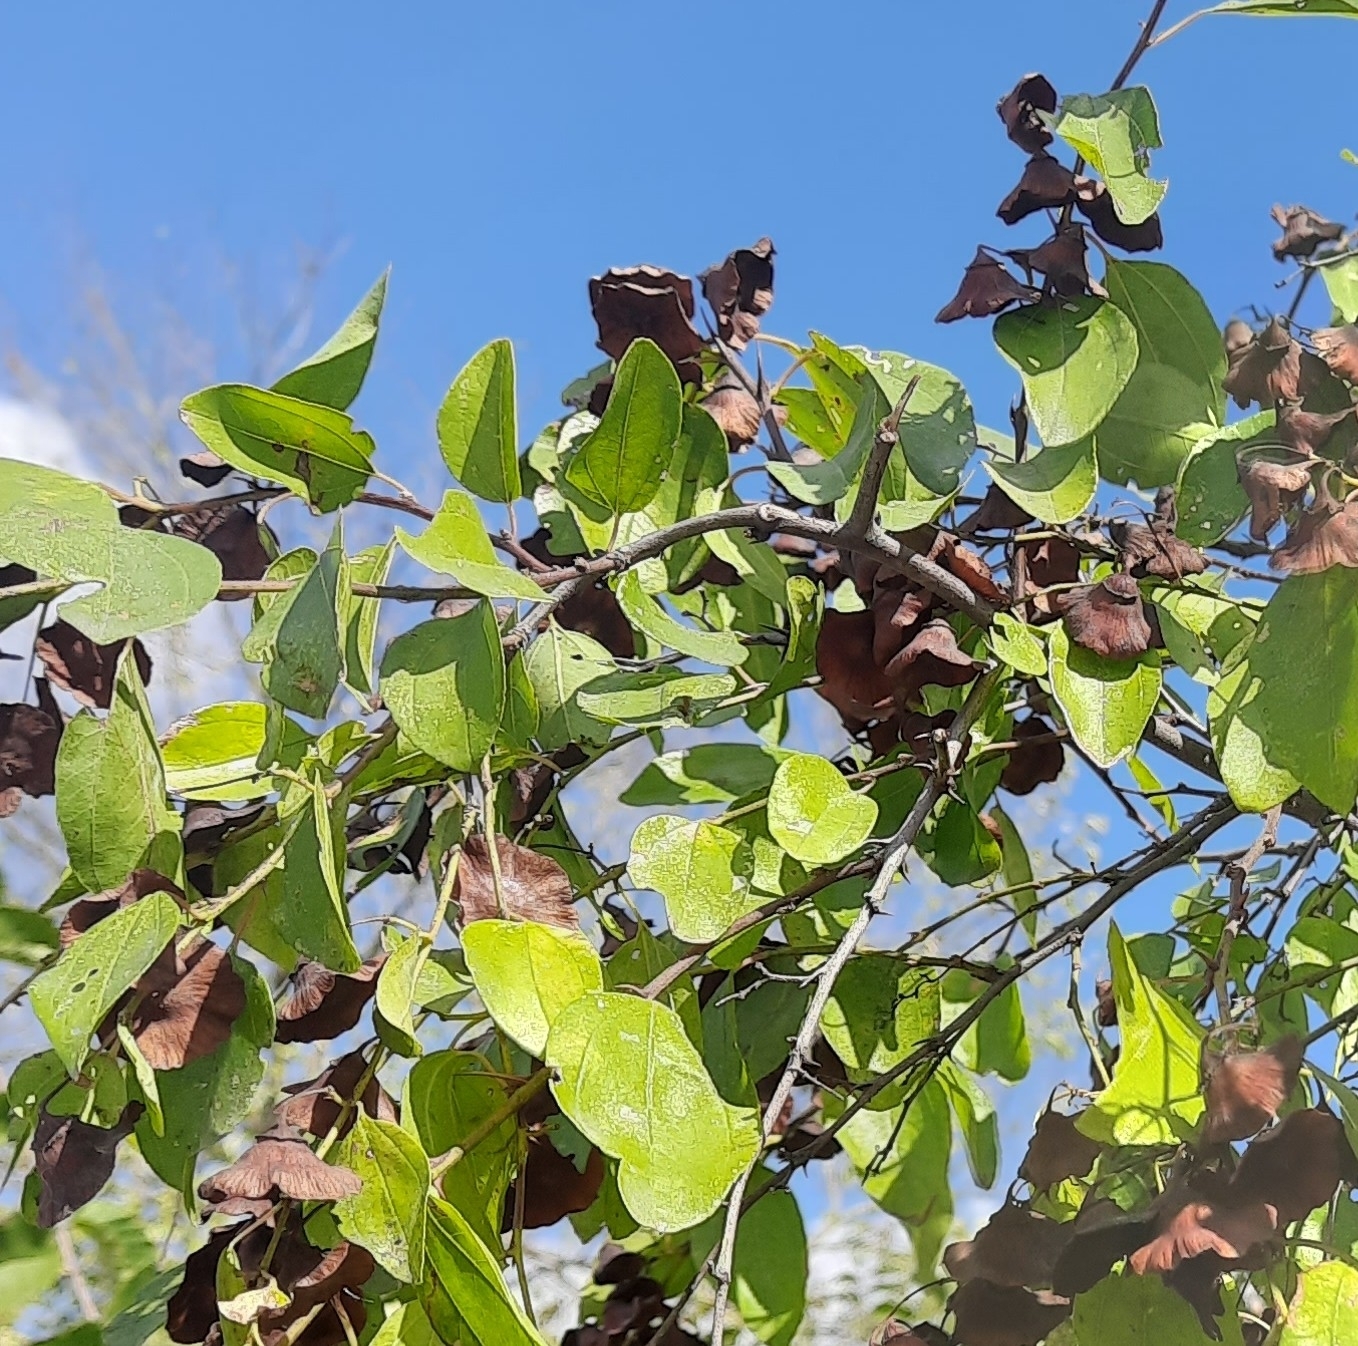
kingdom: Plantae
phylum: Tracheophyta
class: Magnoliopsida
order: Rosales
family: Rhamnaceae
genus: Paliurus
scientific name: Paliurus spina-christi
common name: Jeruselem thorn
